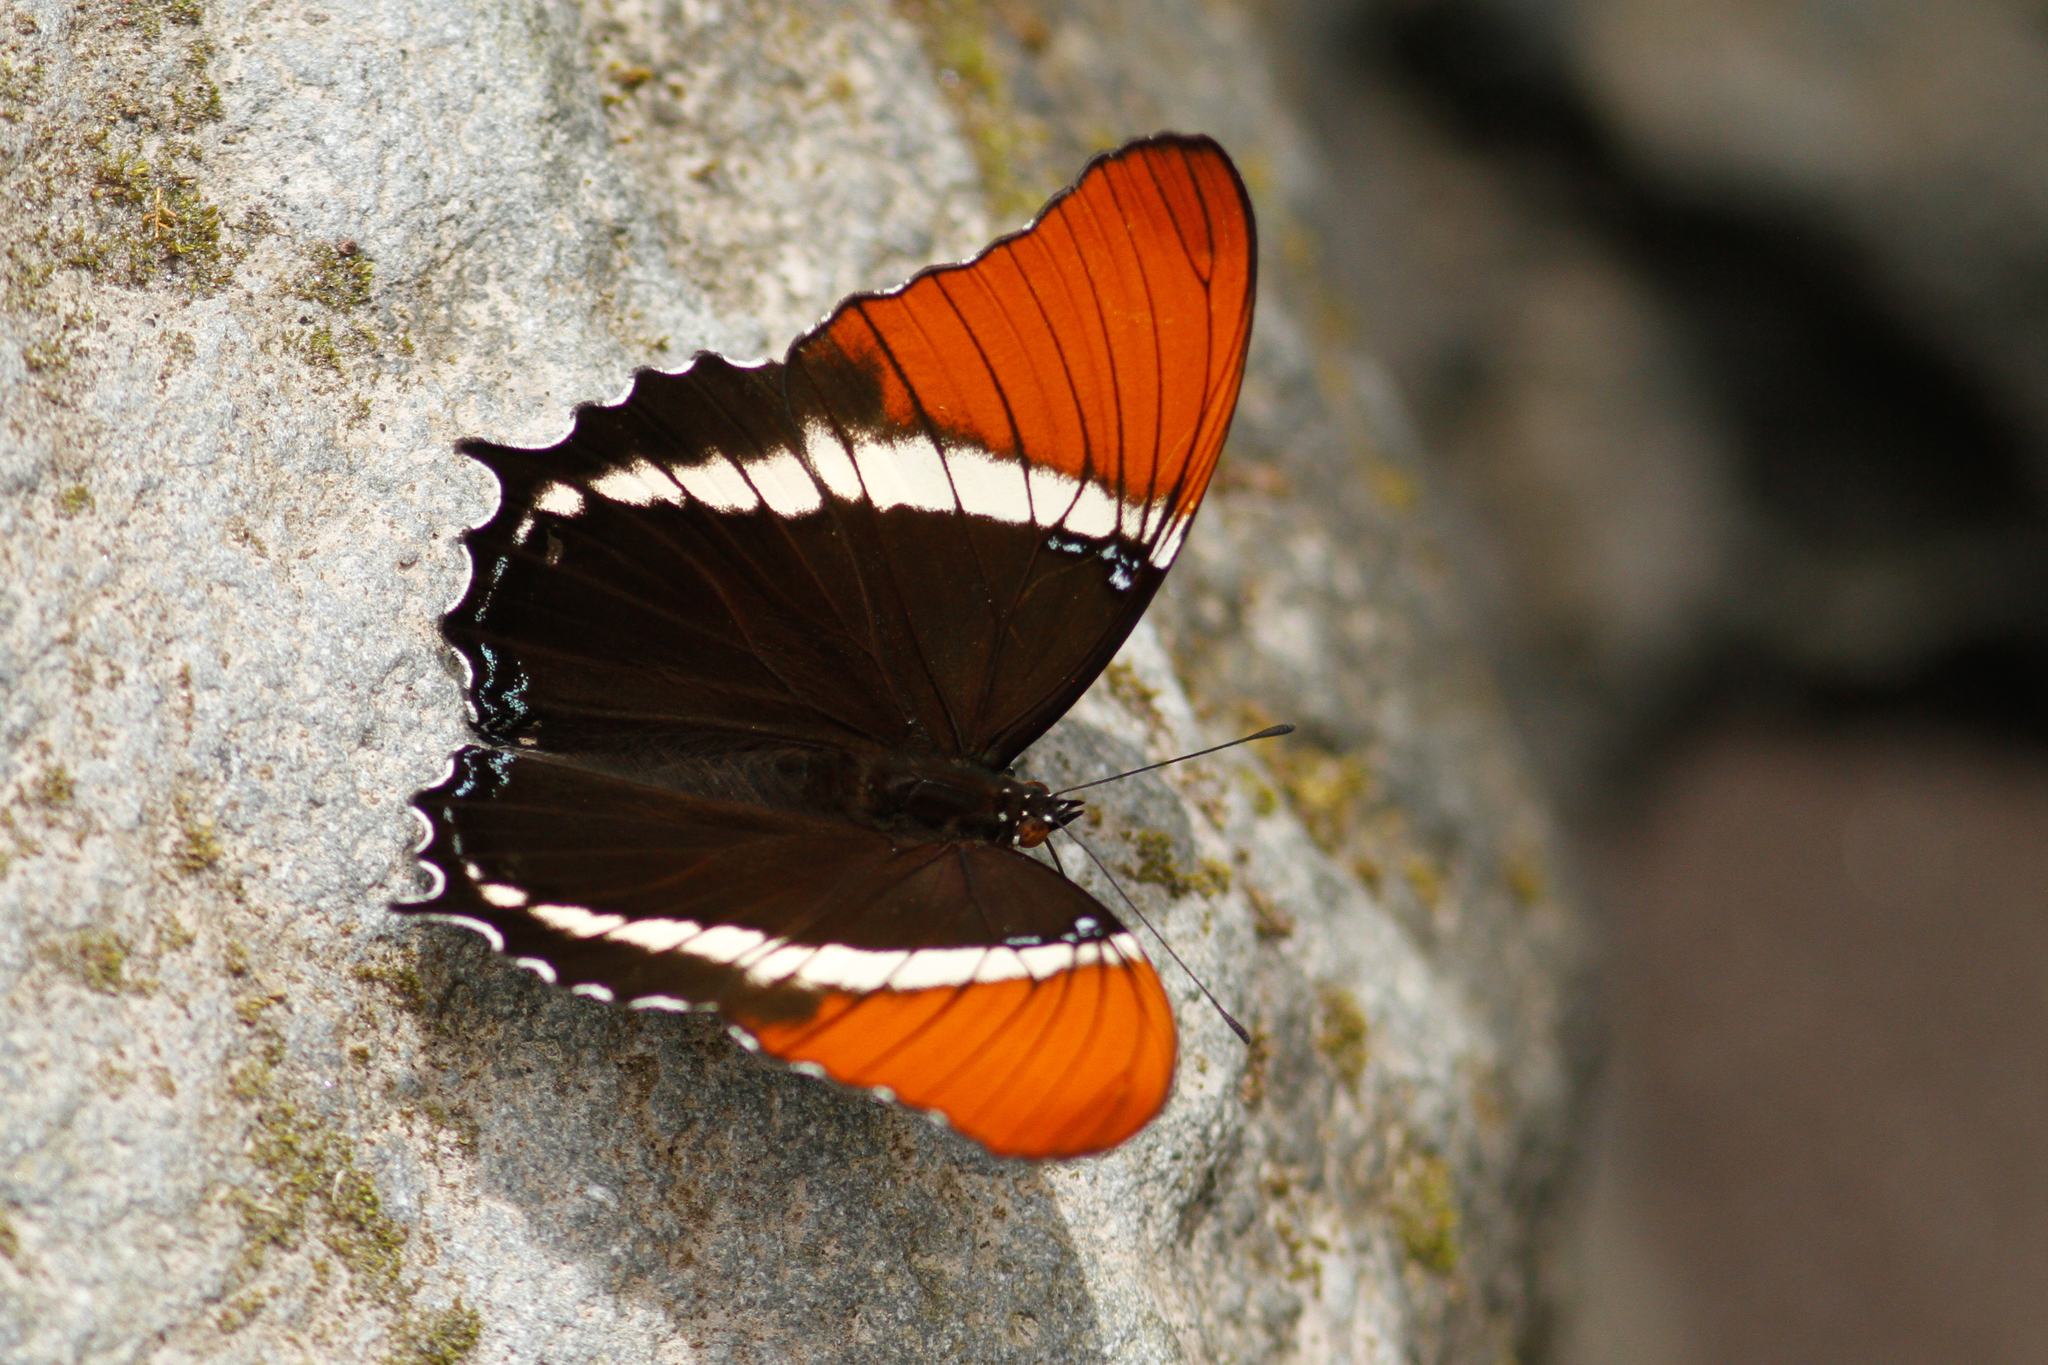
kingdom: Animalia
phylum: Arthropoda
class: Insecta
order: Lepidoptera
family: Nymphalidae
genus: Siproeta
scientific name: Siproeta epaphus
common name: Rusty-tipped page
